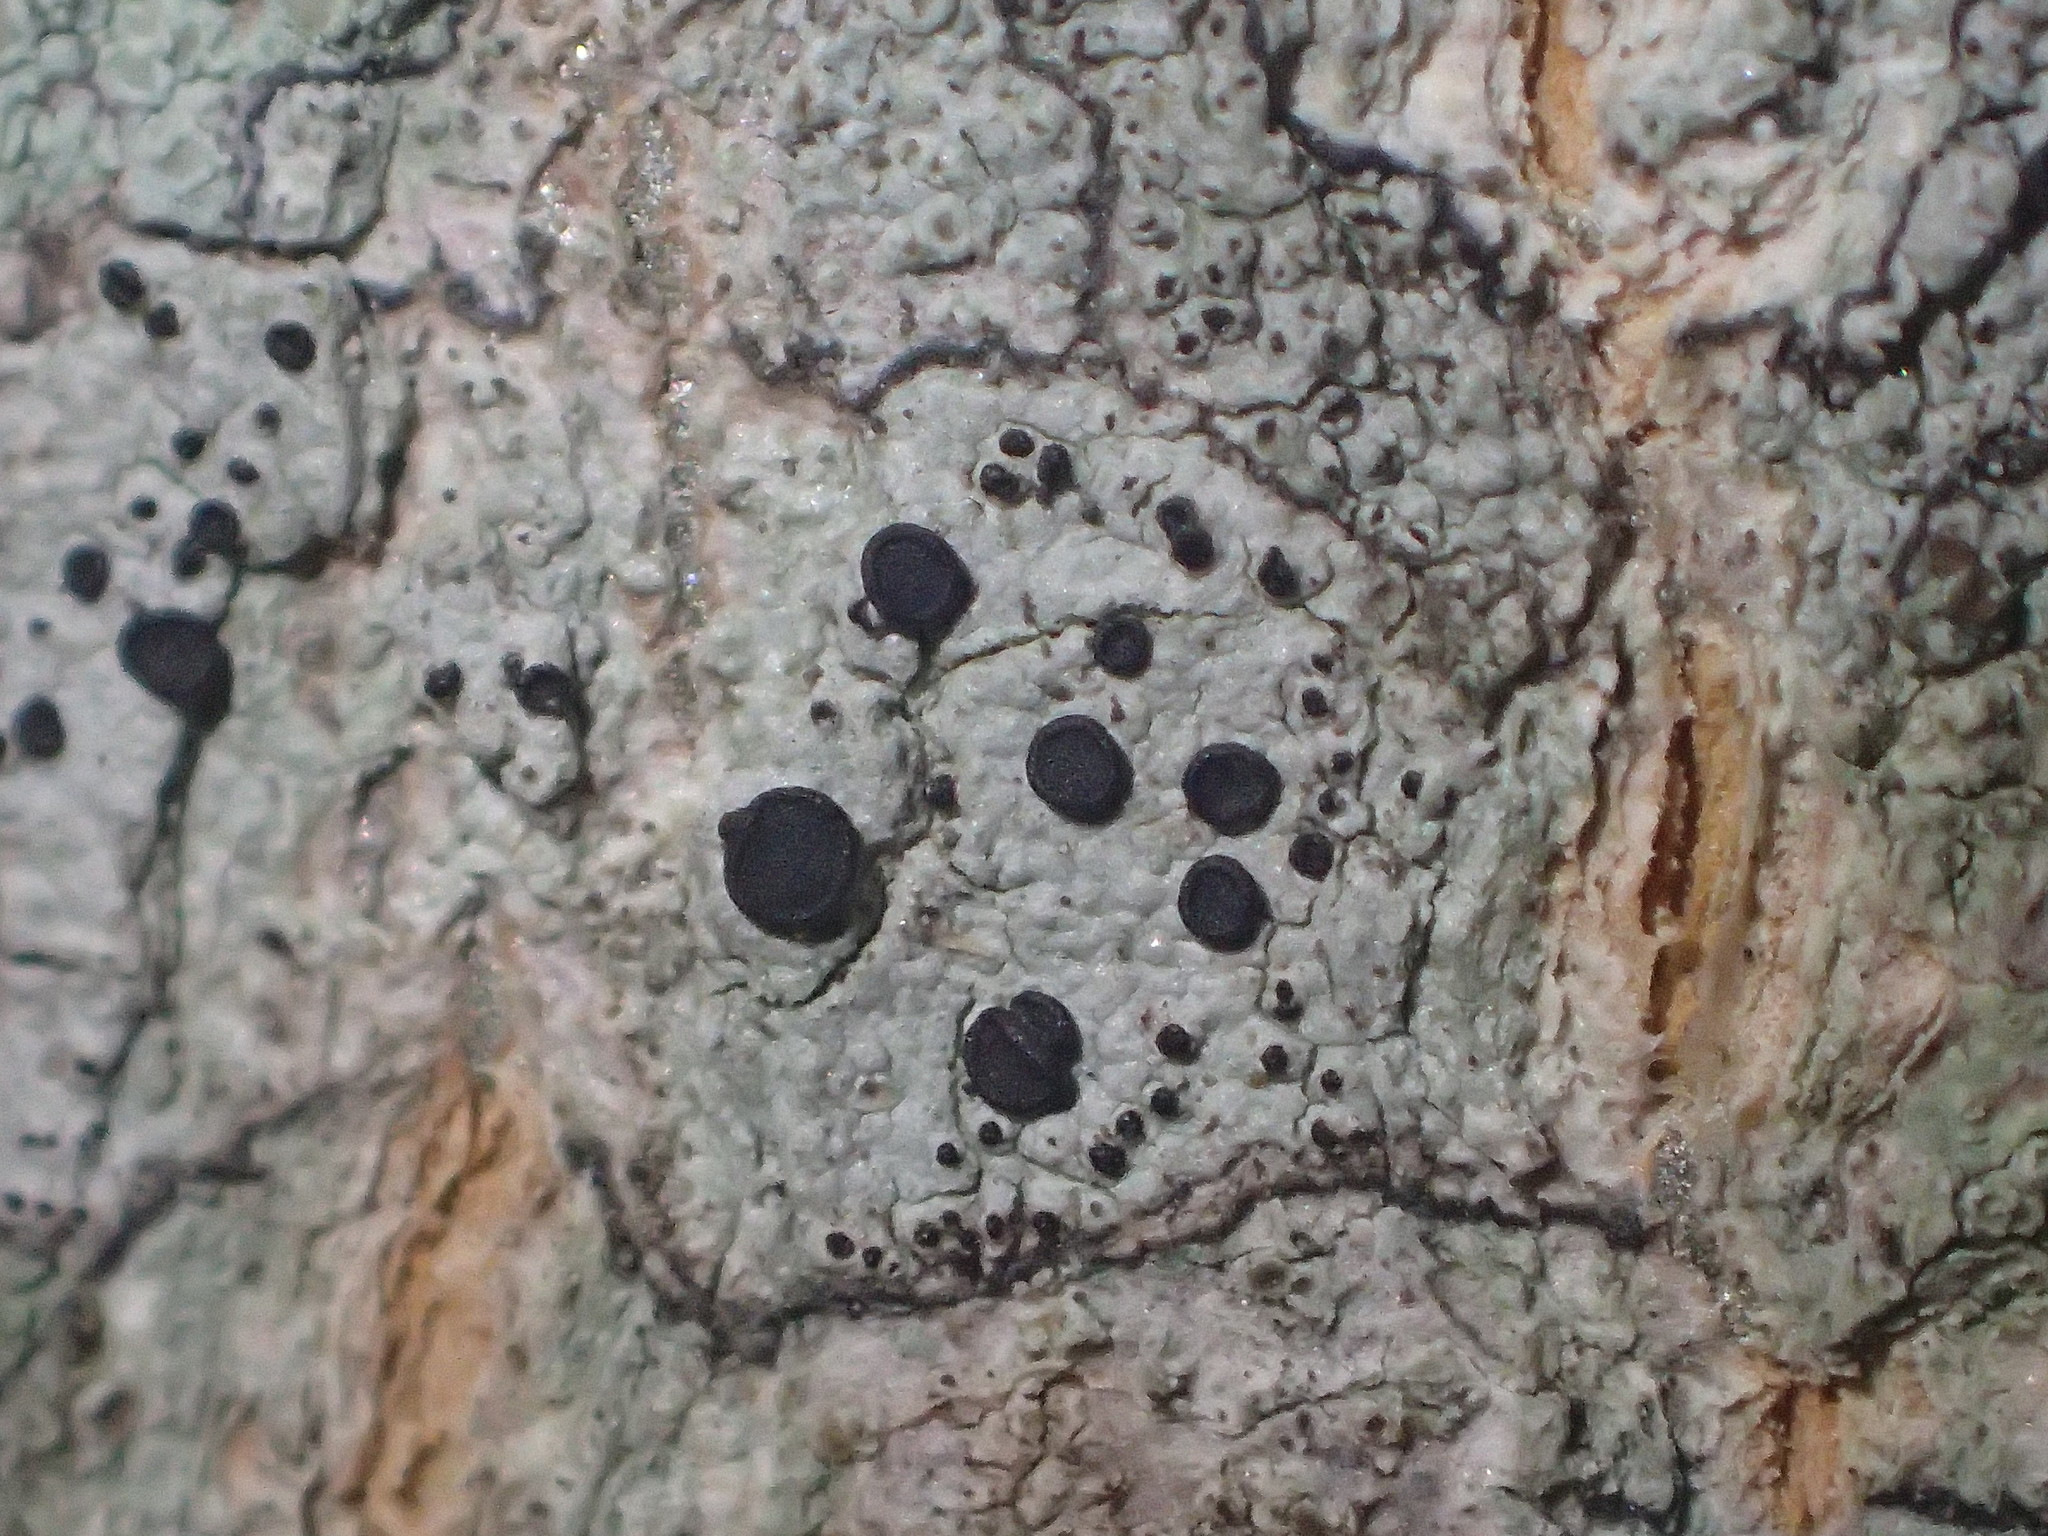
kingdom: Fungi
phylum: Ascomycota
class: Lecanoromycetes
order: Caliciales
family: Caliciaceae
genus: Buellia
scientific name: Buellia erubescens
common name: Common button lichen
